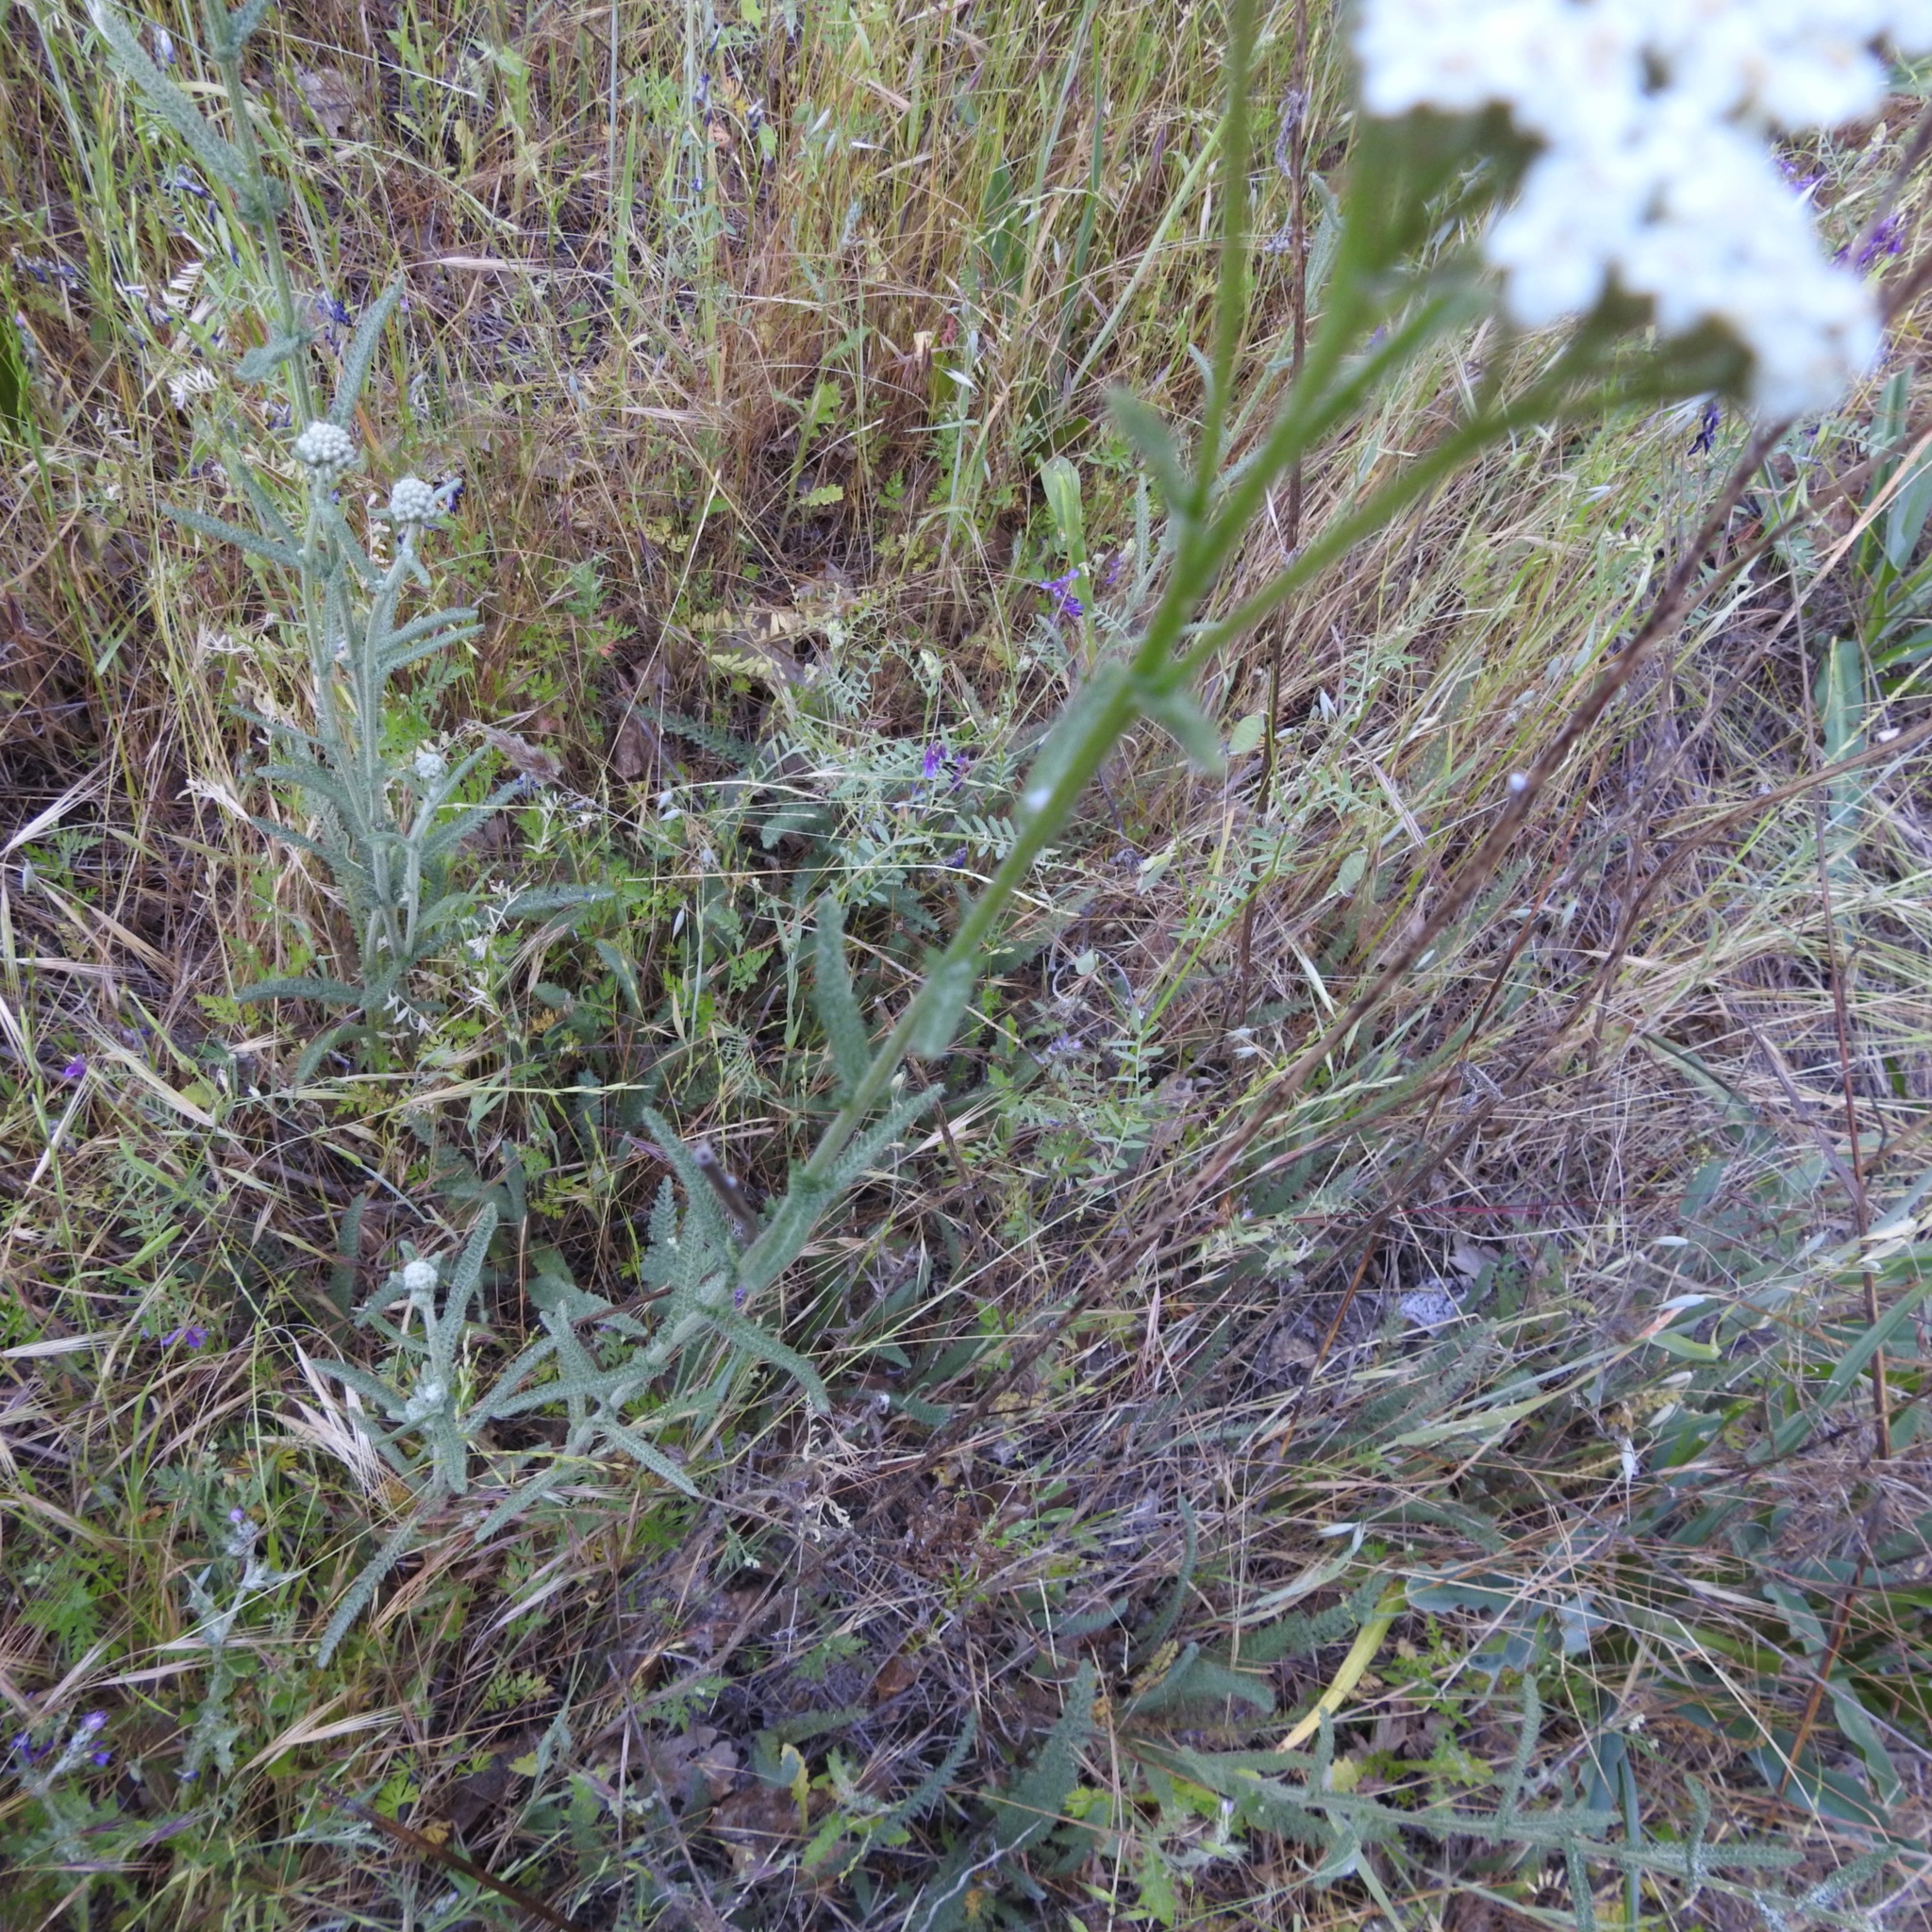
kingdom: Plantae
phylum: Tracheophyta
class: Magnoliopsida
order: Asterales
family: Asteraceae
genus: Achillea
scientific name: Achillea millefolium
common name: Yarrow
